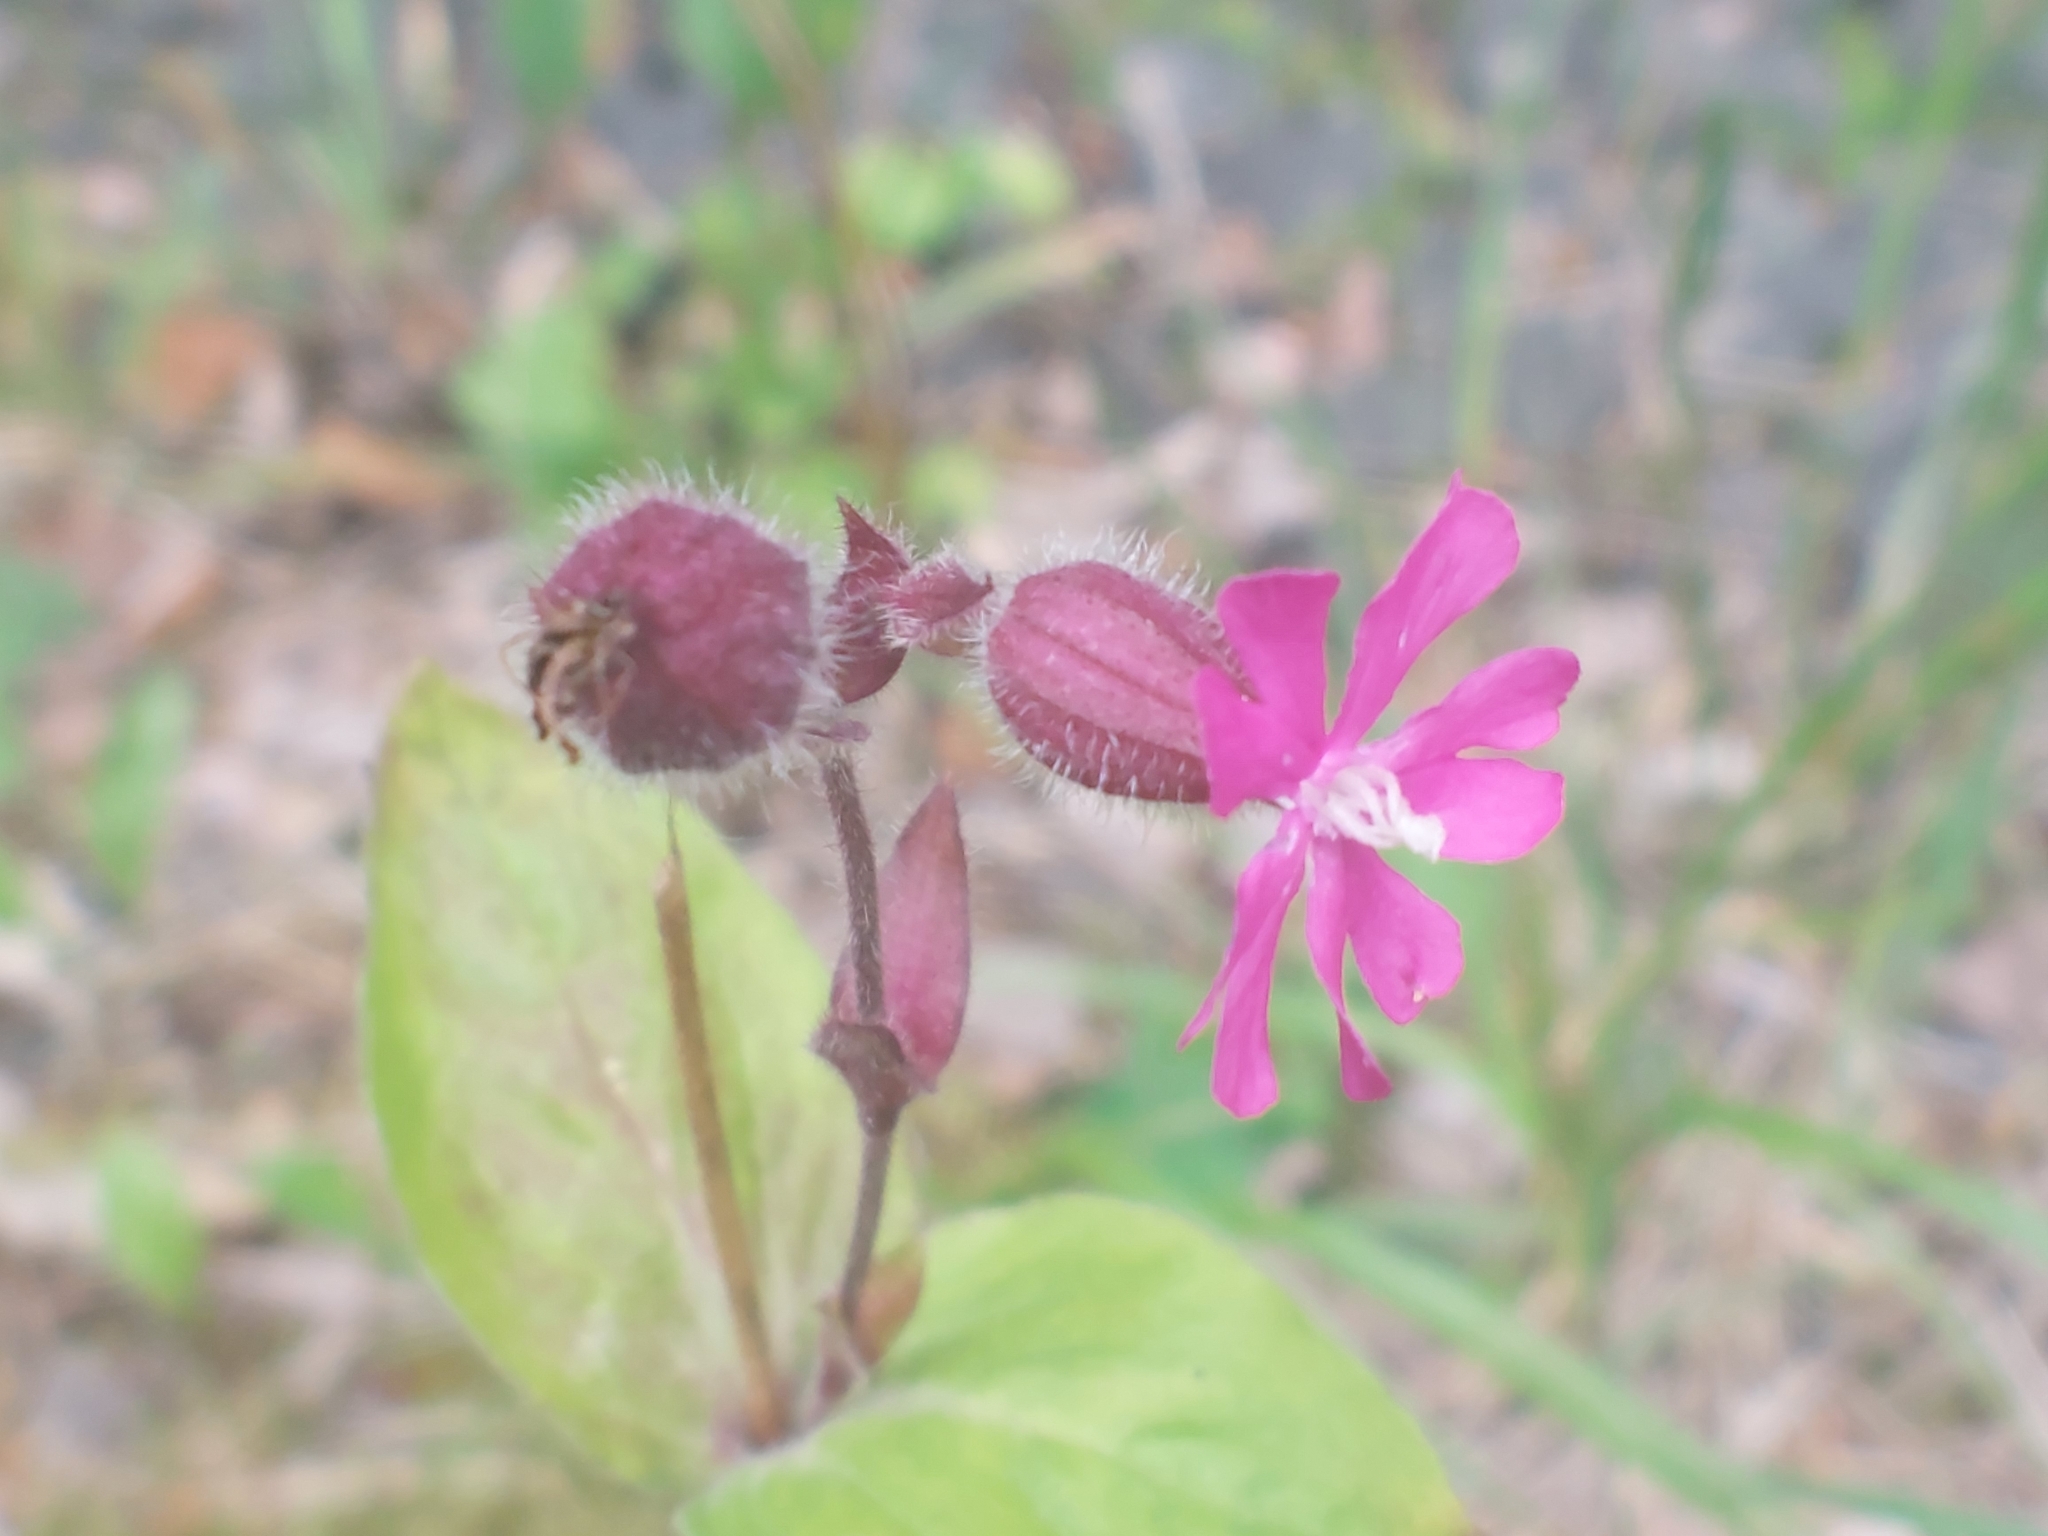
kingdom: Plantae
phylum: Tracheophyta
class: Magnoliopsida
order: Caryophyllales
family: Caryophyllaceae
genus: Silene
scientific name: Silene dioica
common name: Red campion
